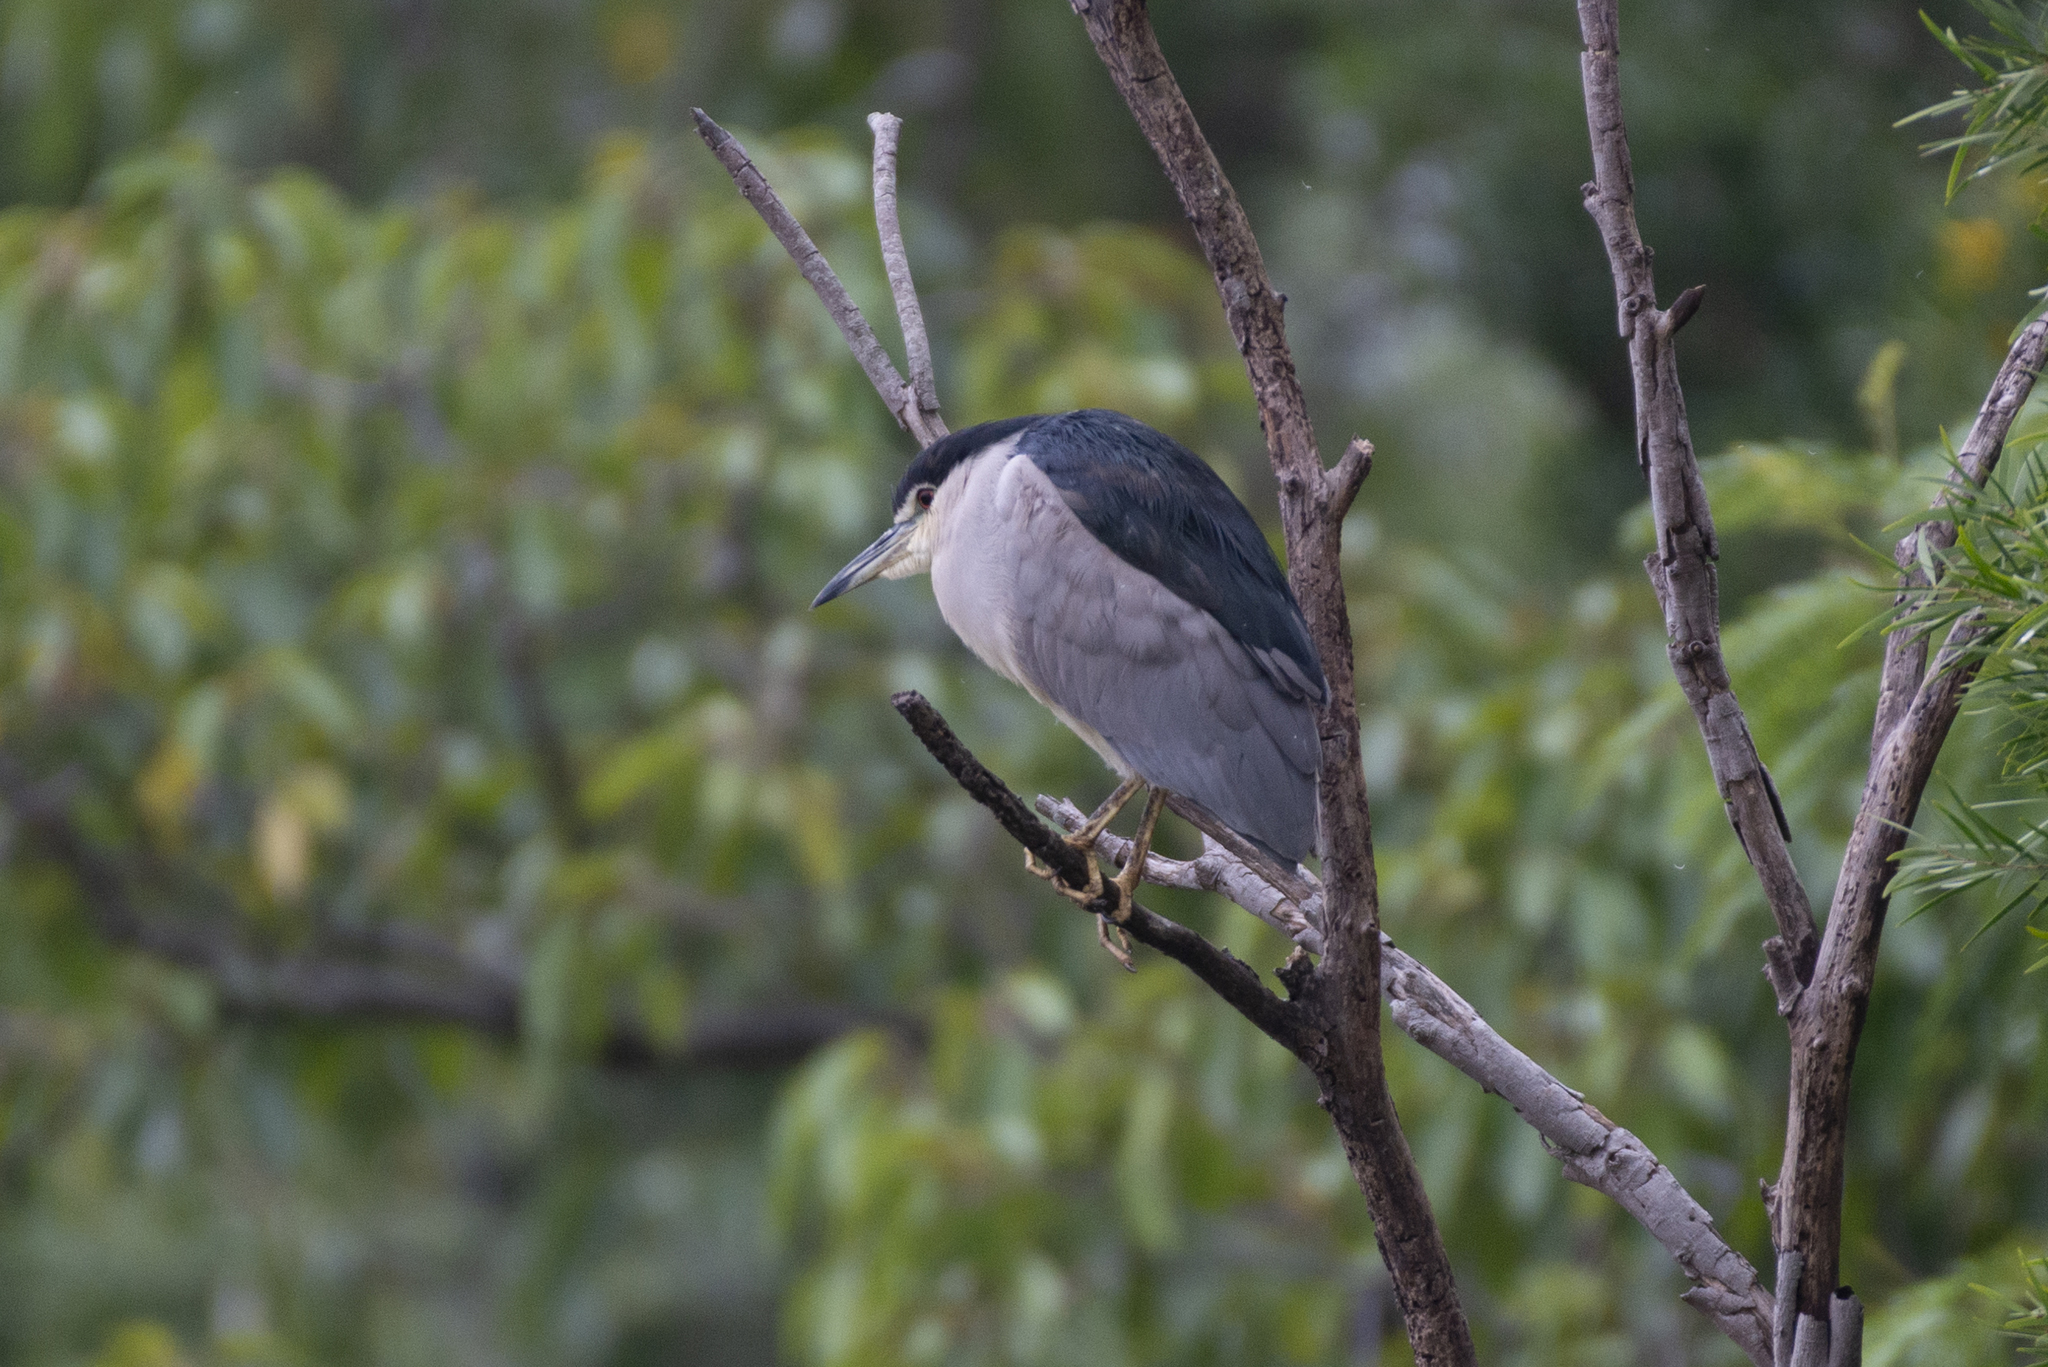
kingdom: Animalia
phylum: Chordata
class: Aves
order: Pelecaniformes
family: Ardeidae
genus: Nycticorax
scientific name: Nycticorax nycticorax
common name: Black-crowned night heron
